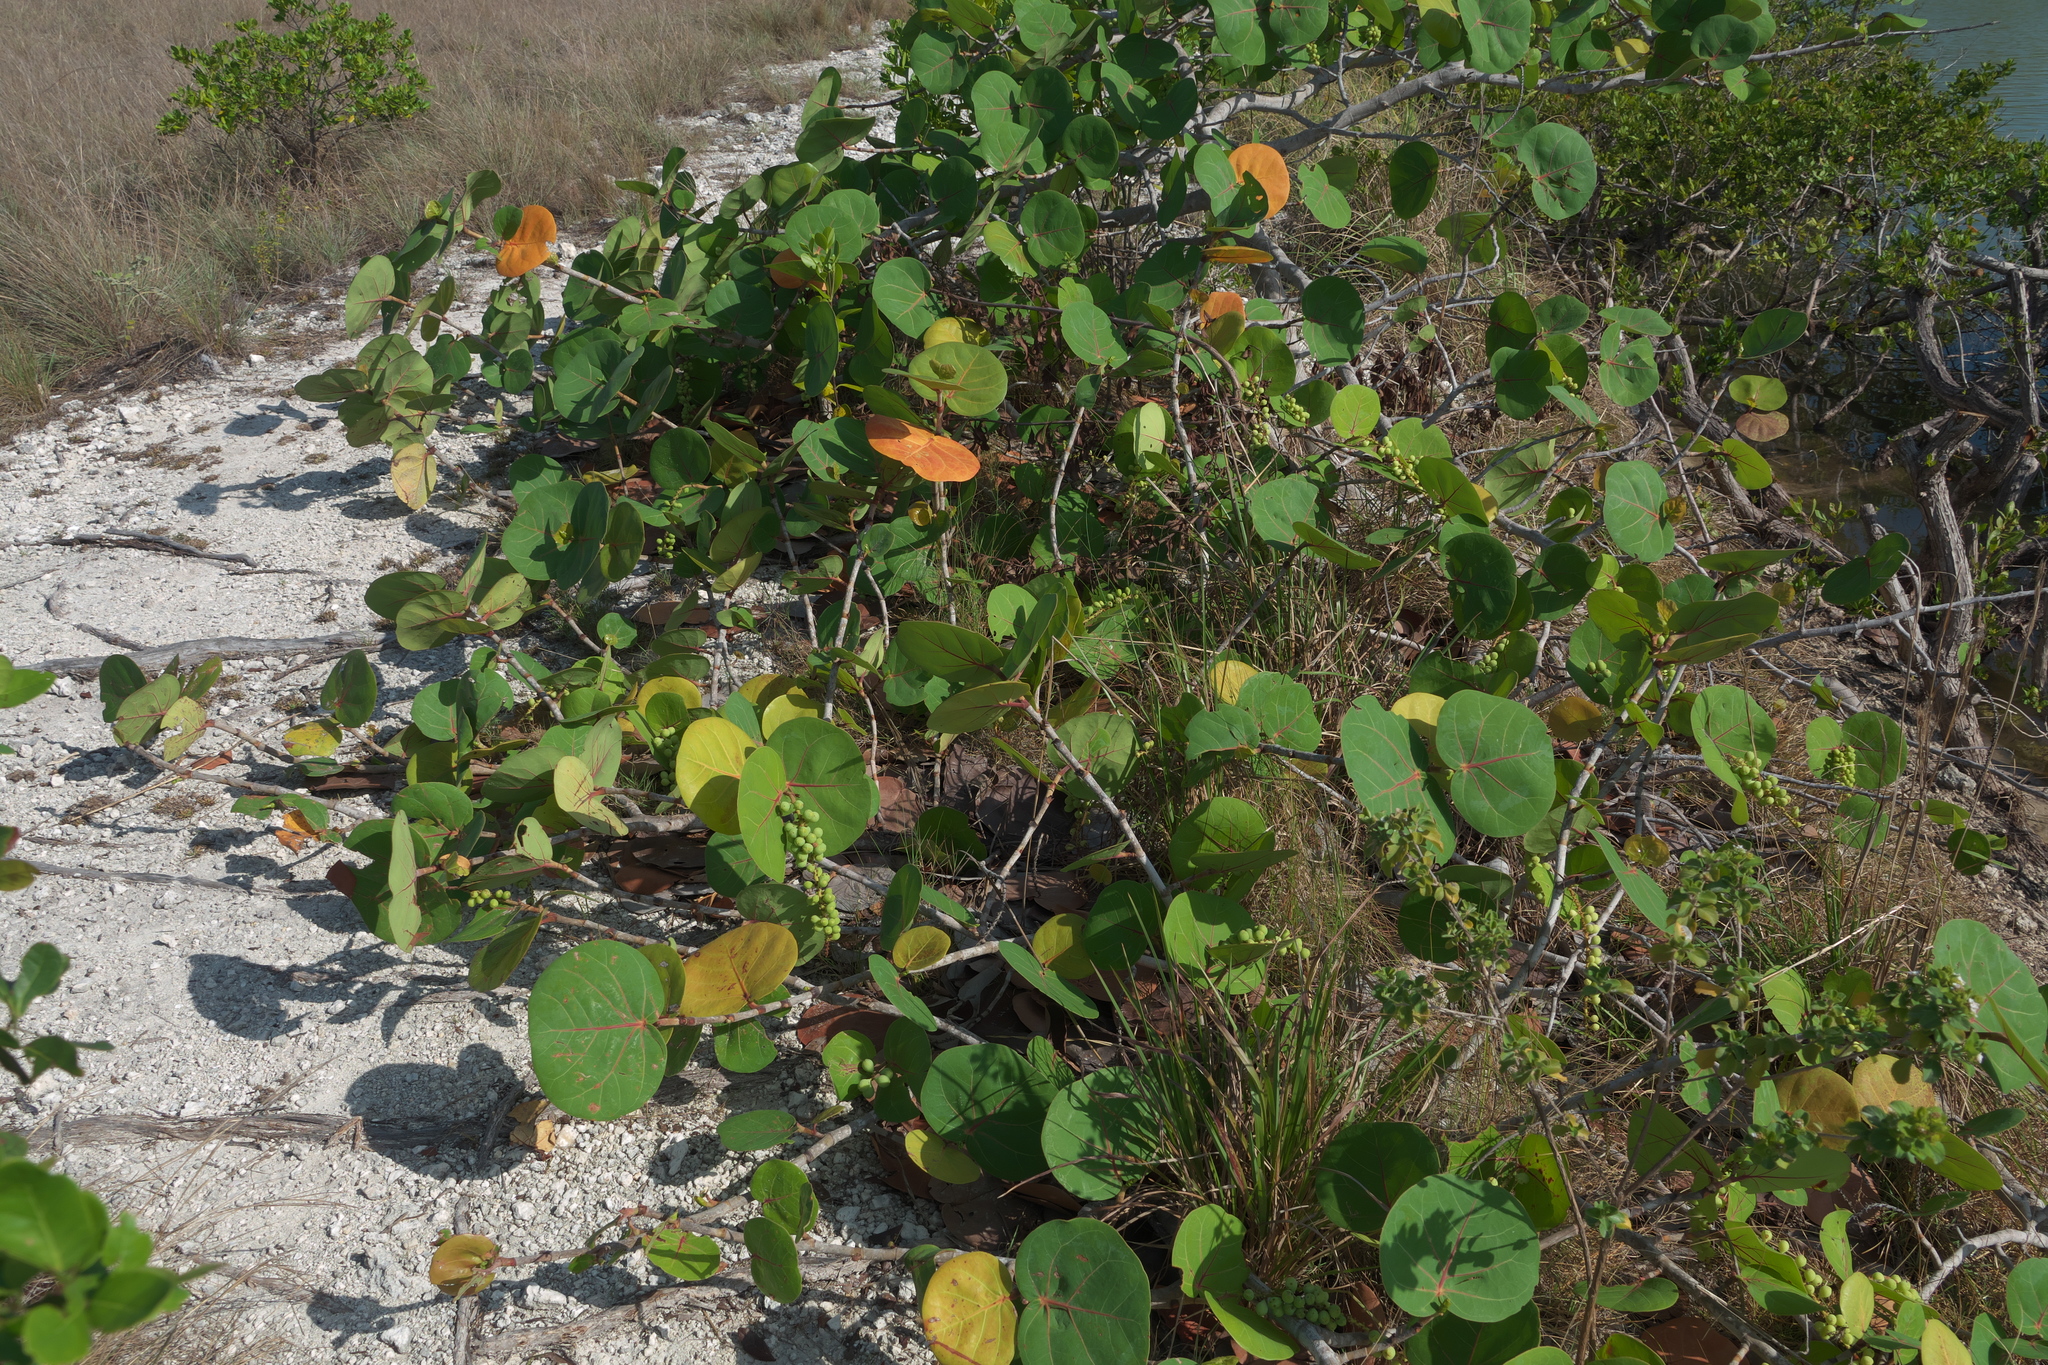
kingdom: Plantae
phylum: Tracheophyta
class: Magnoliopsida
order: Caryophyllales
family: Polygonaceae
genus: Coccoloba
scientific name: Coccoloba uvifera
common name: Seagrape
